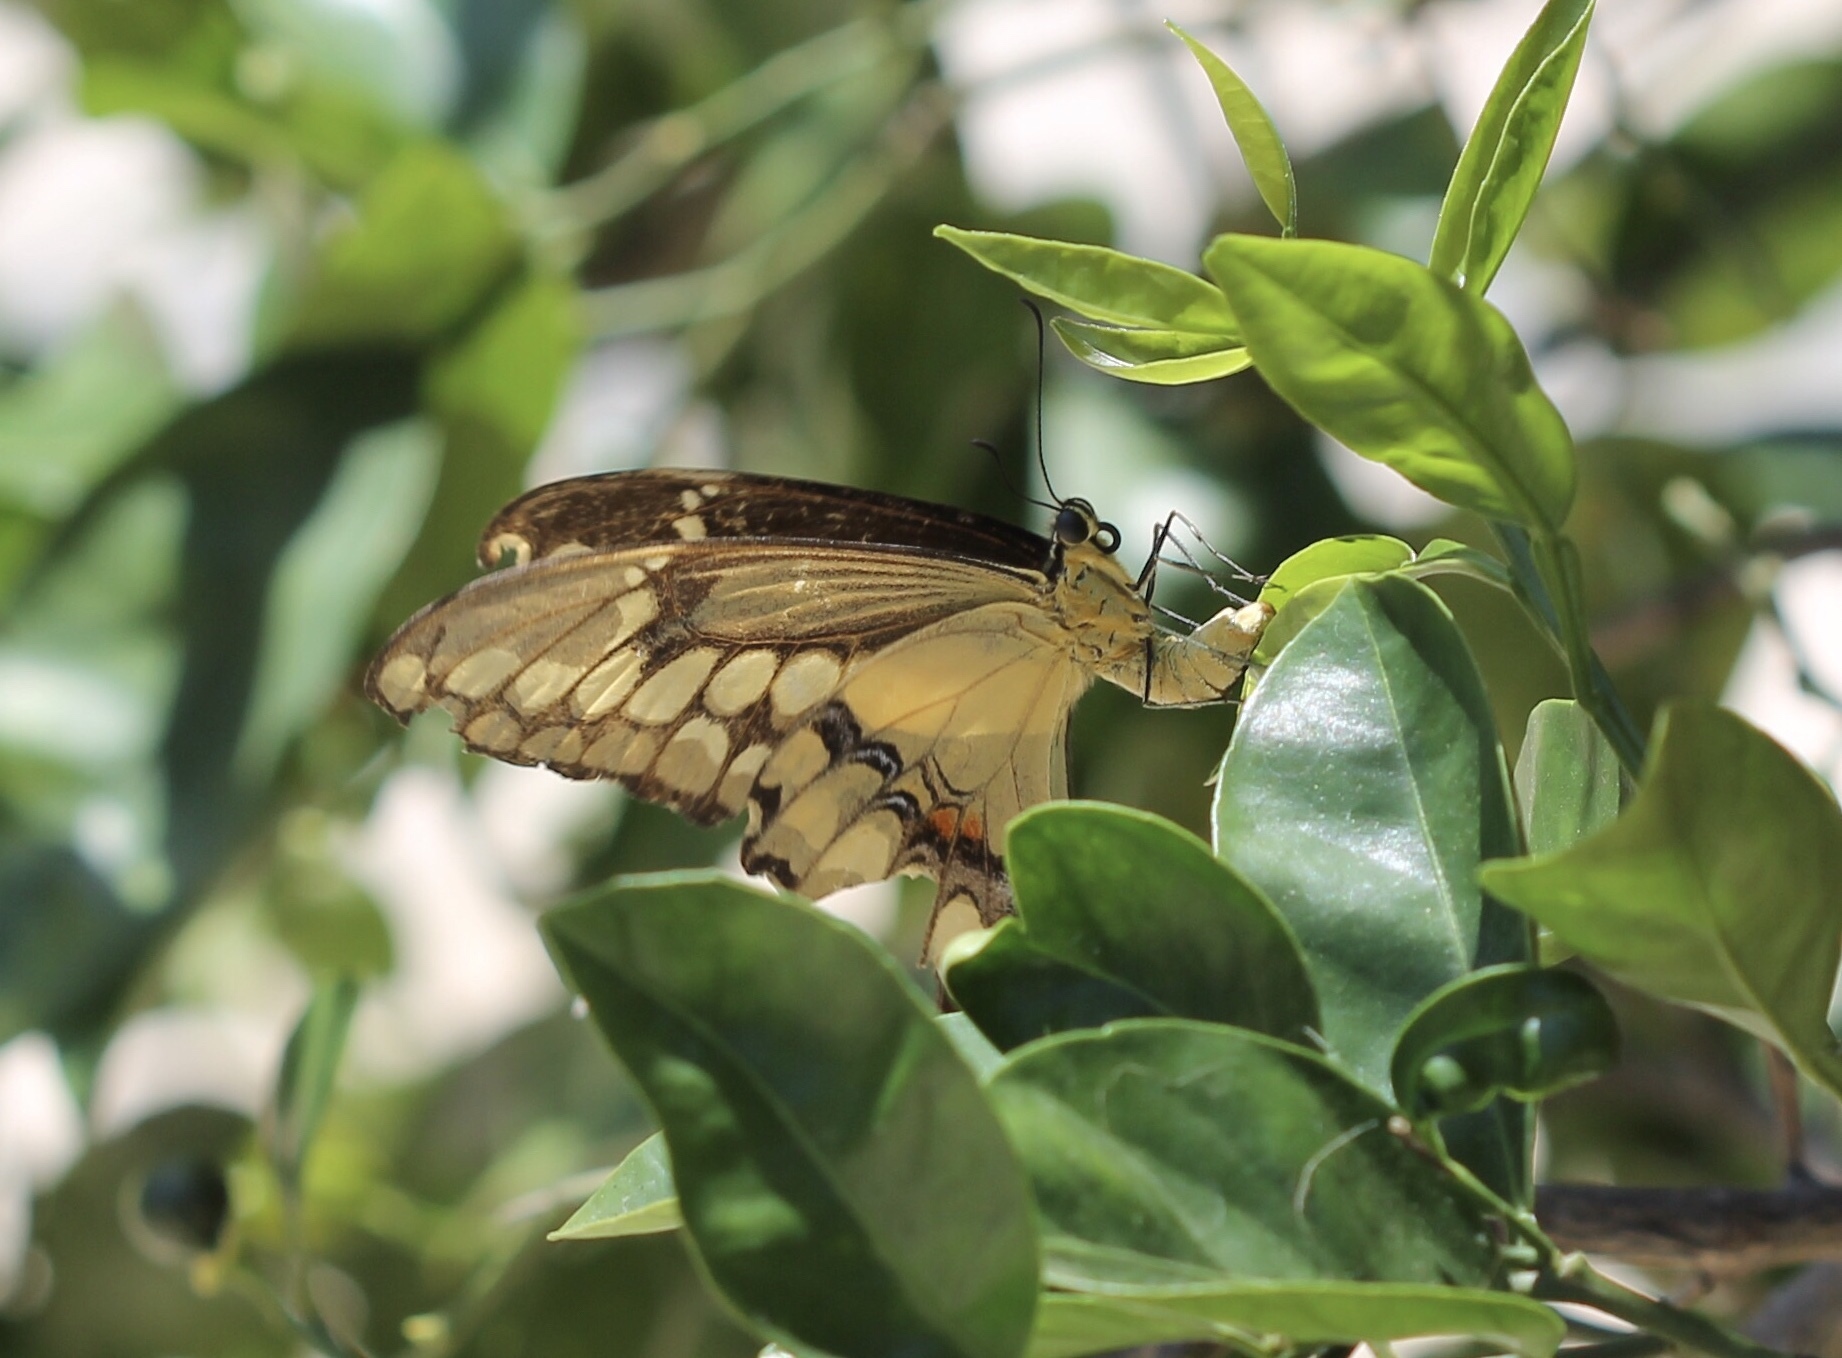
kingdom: Animalia
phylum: Arthropoda
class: Insecta
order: Lepidoptera
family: Papilionidae
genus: Papilio
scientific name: Papilio rumiko
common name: Western giant swallowtail
